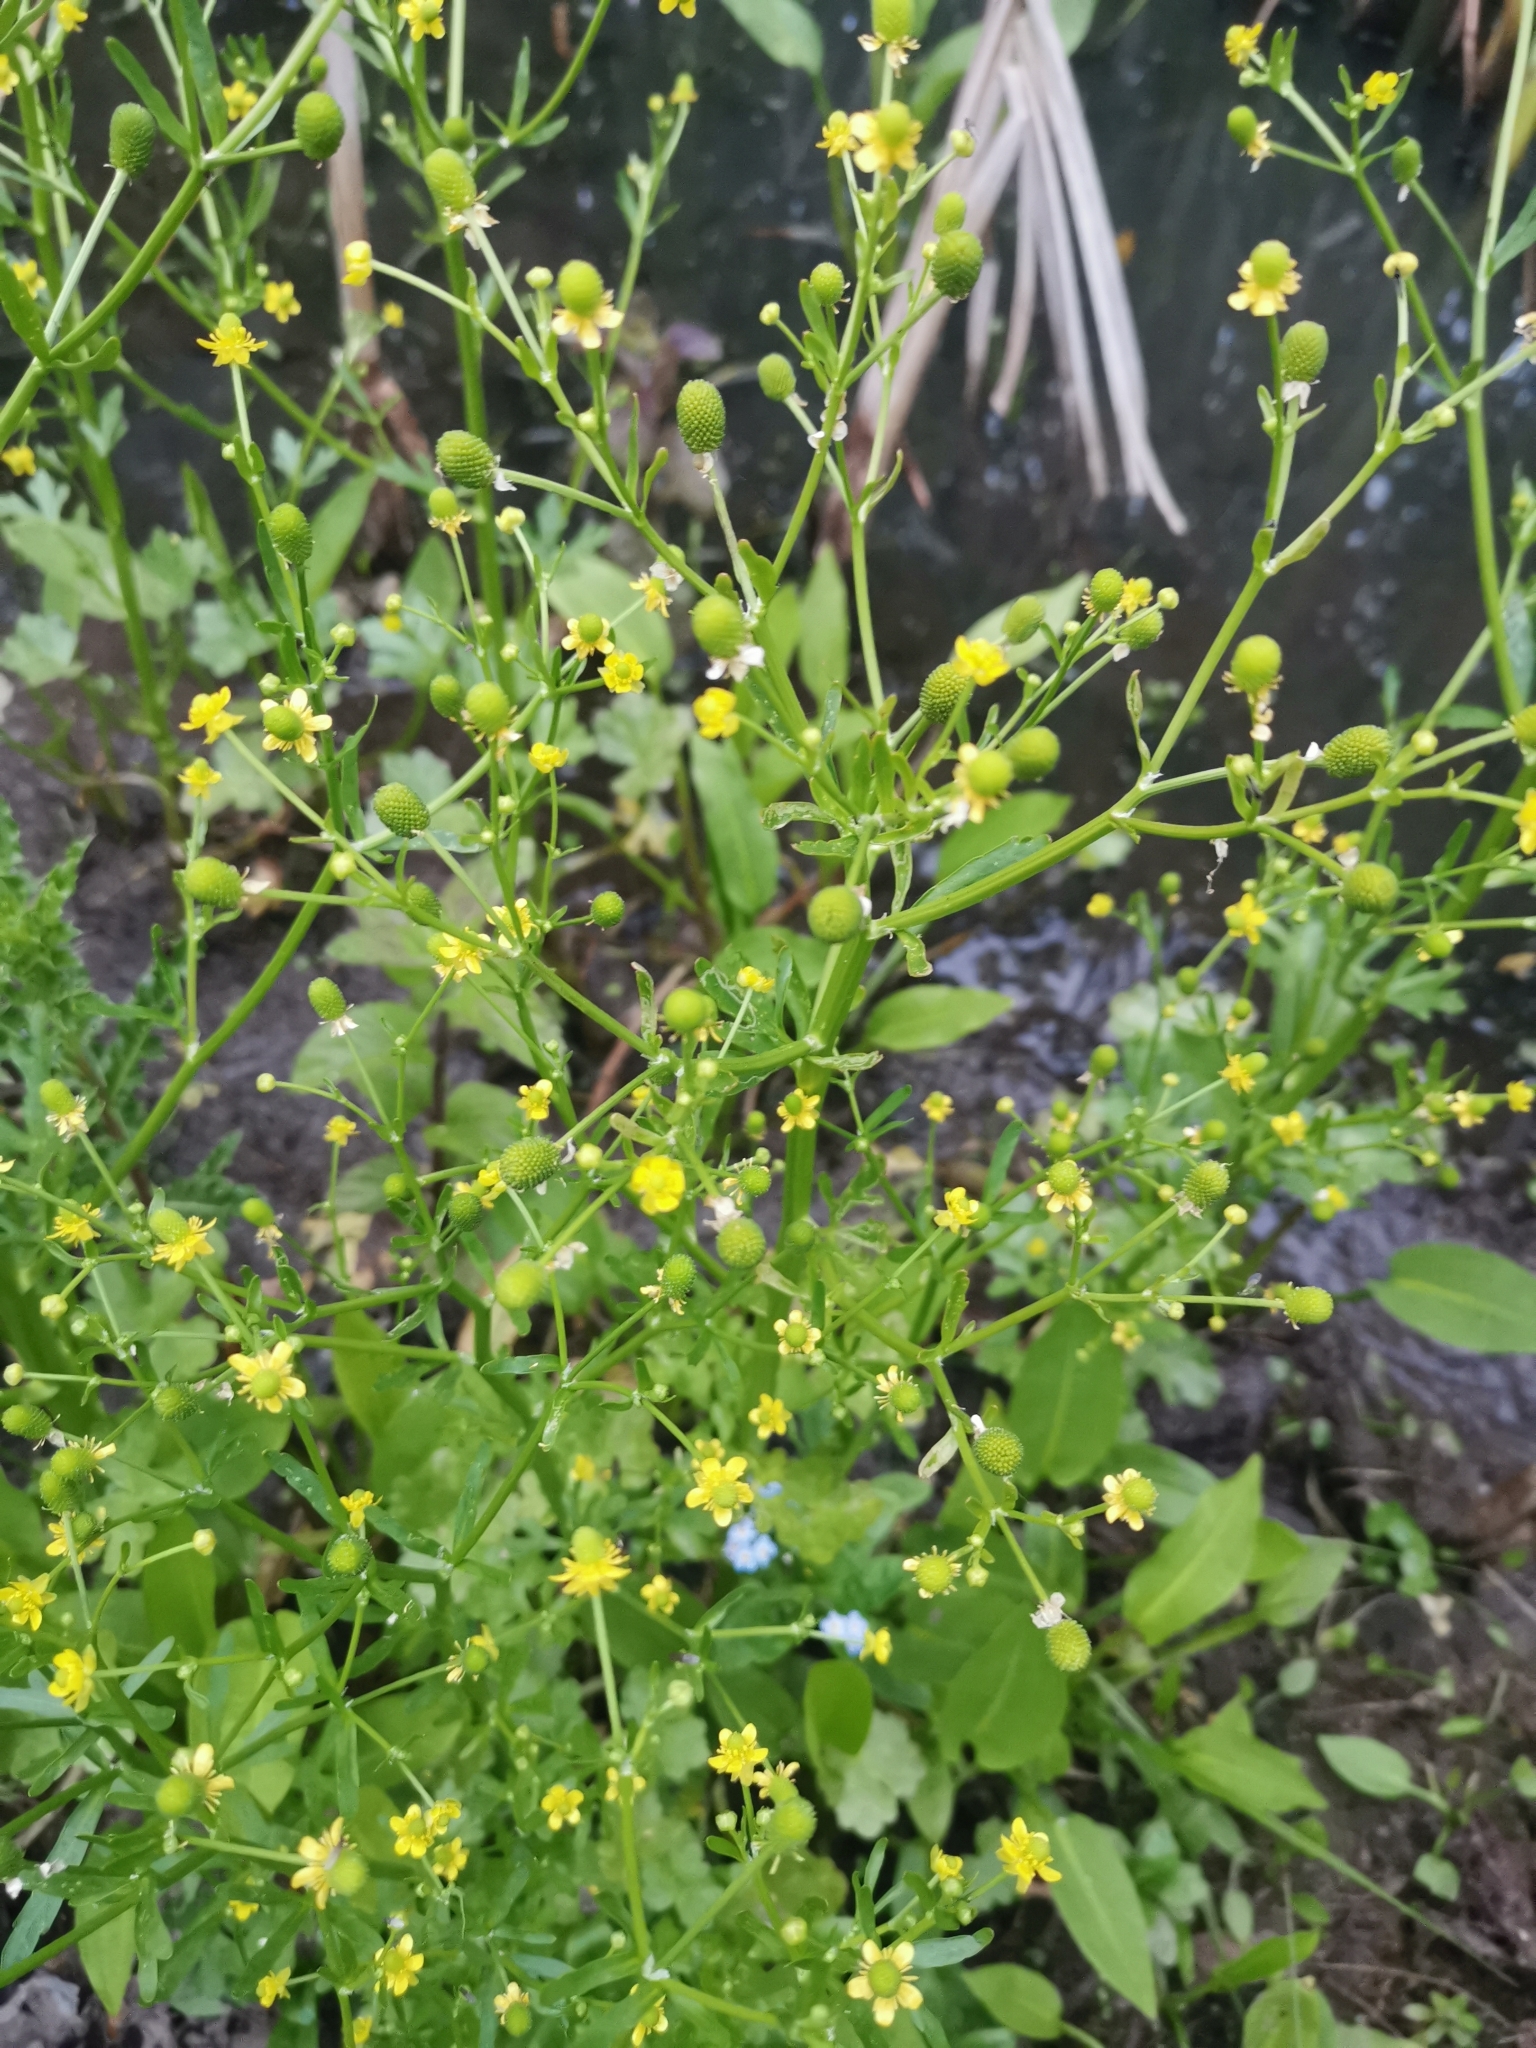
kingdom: Plantae
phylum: Tracheophyta
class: Magnoliopsida
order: Ranunculales
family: Ranunculaceae
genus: Ranunculus
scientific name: Ranunculus sceleratus
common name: Celery-leaved buttercup
